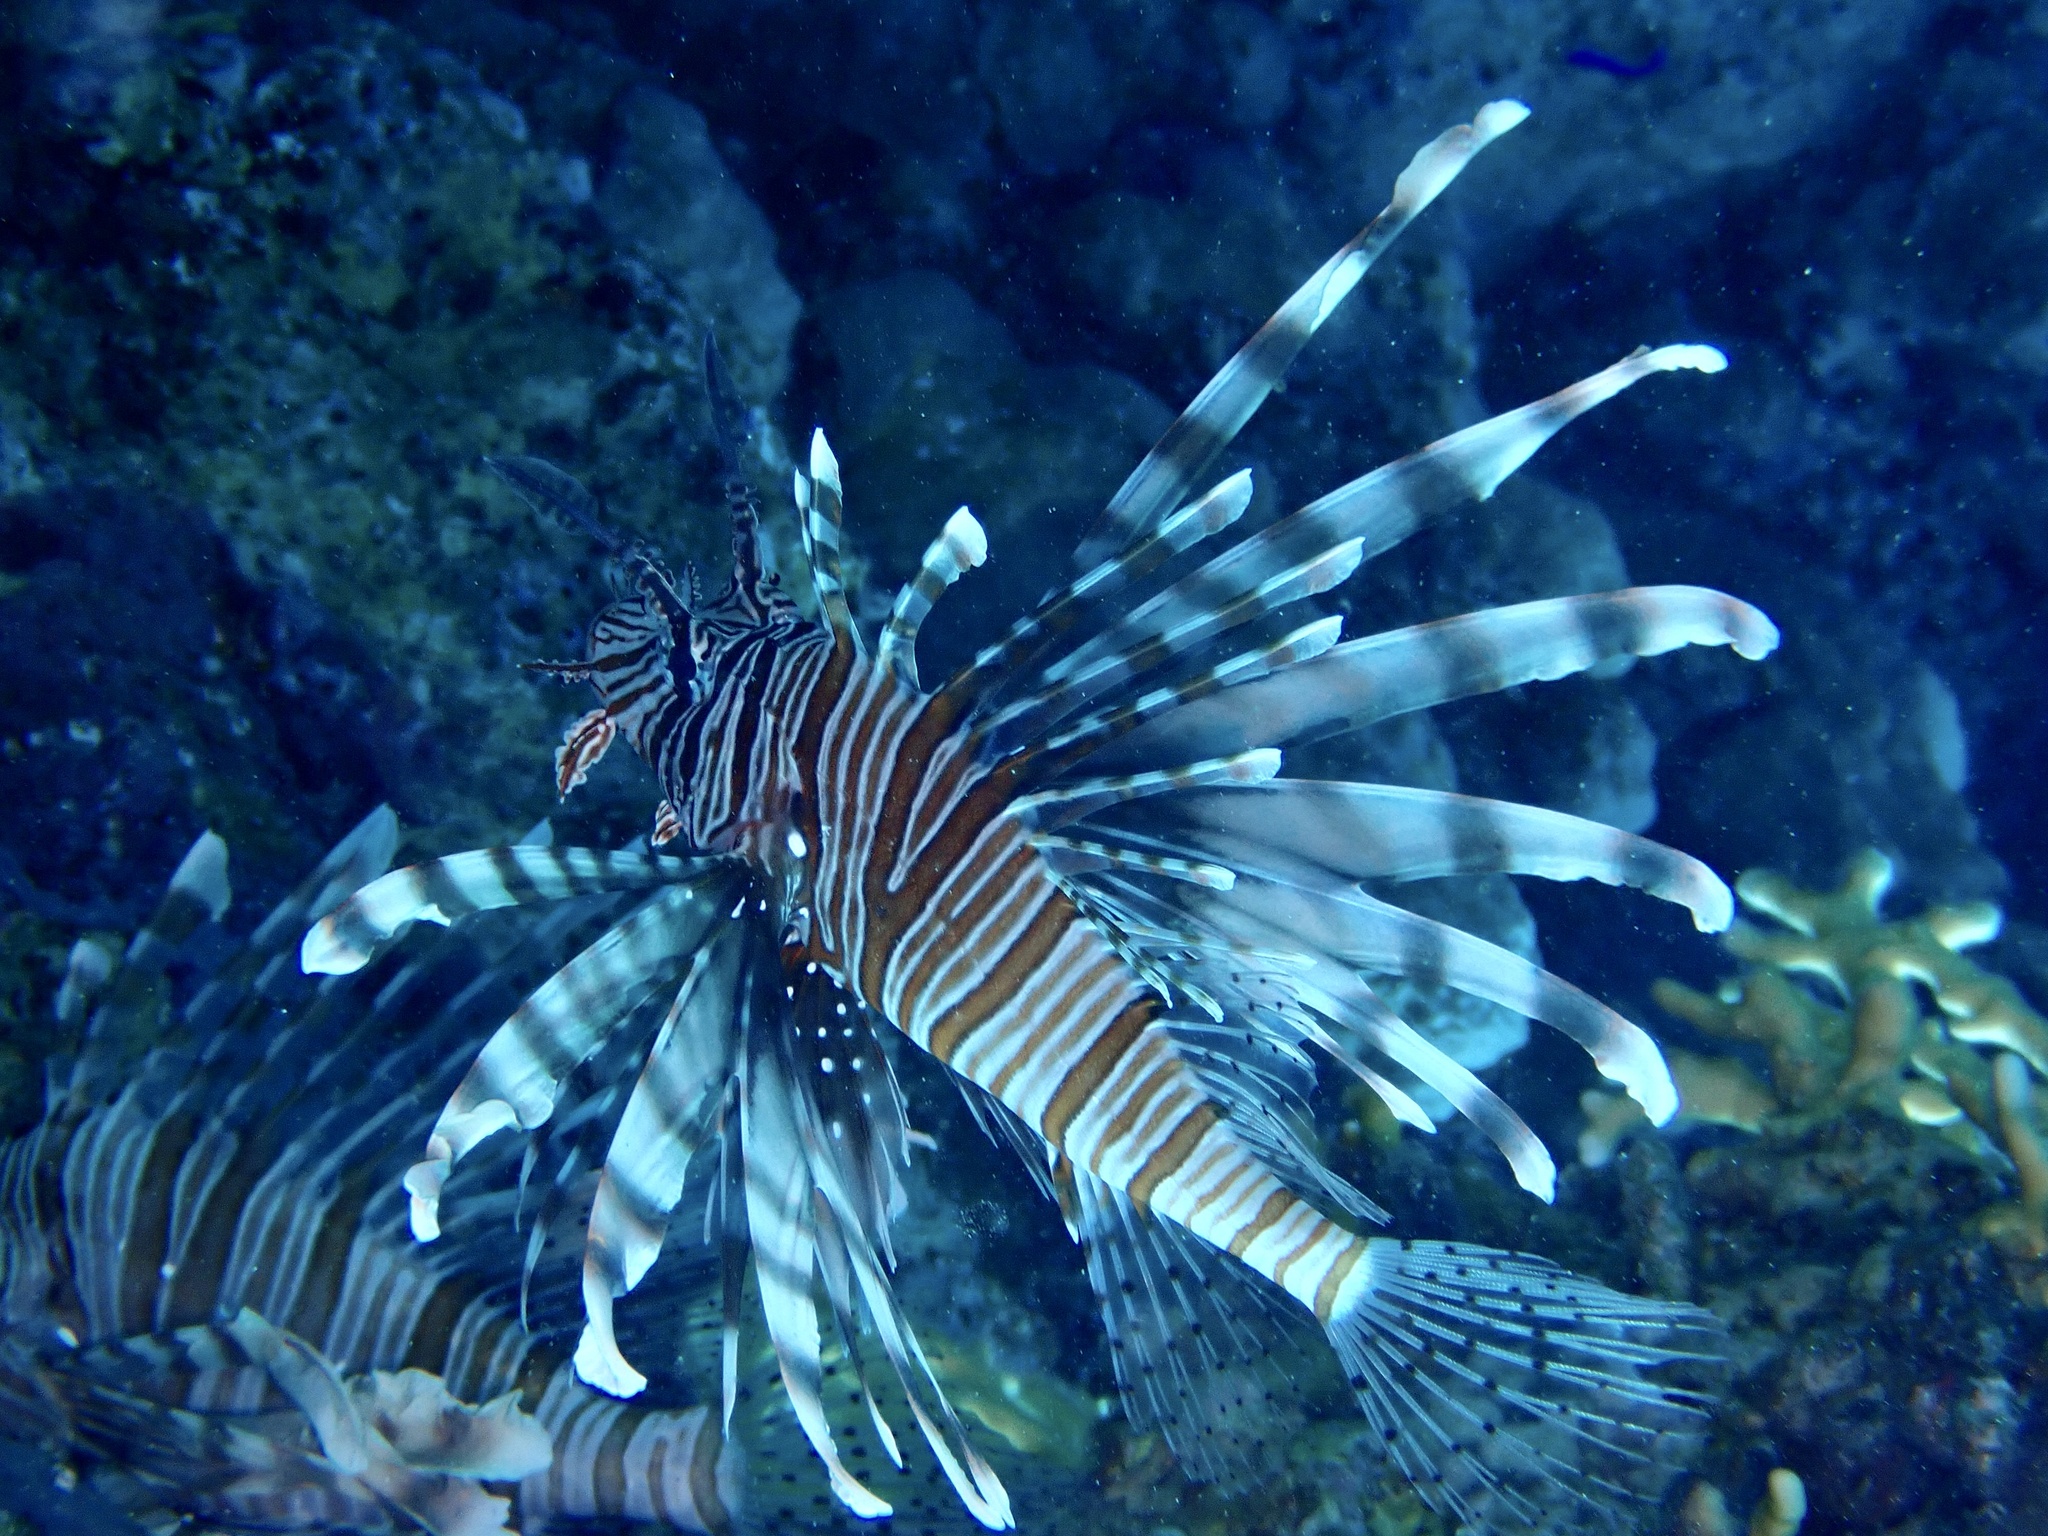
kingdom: Animalia
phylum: Chordata
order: Scorpaeniformes
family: Scorpaenidae
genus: Pterois
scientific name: Pterois miles
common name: Devil firefish
